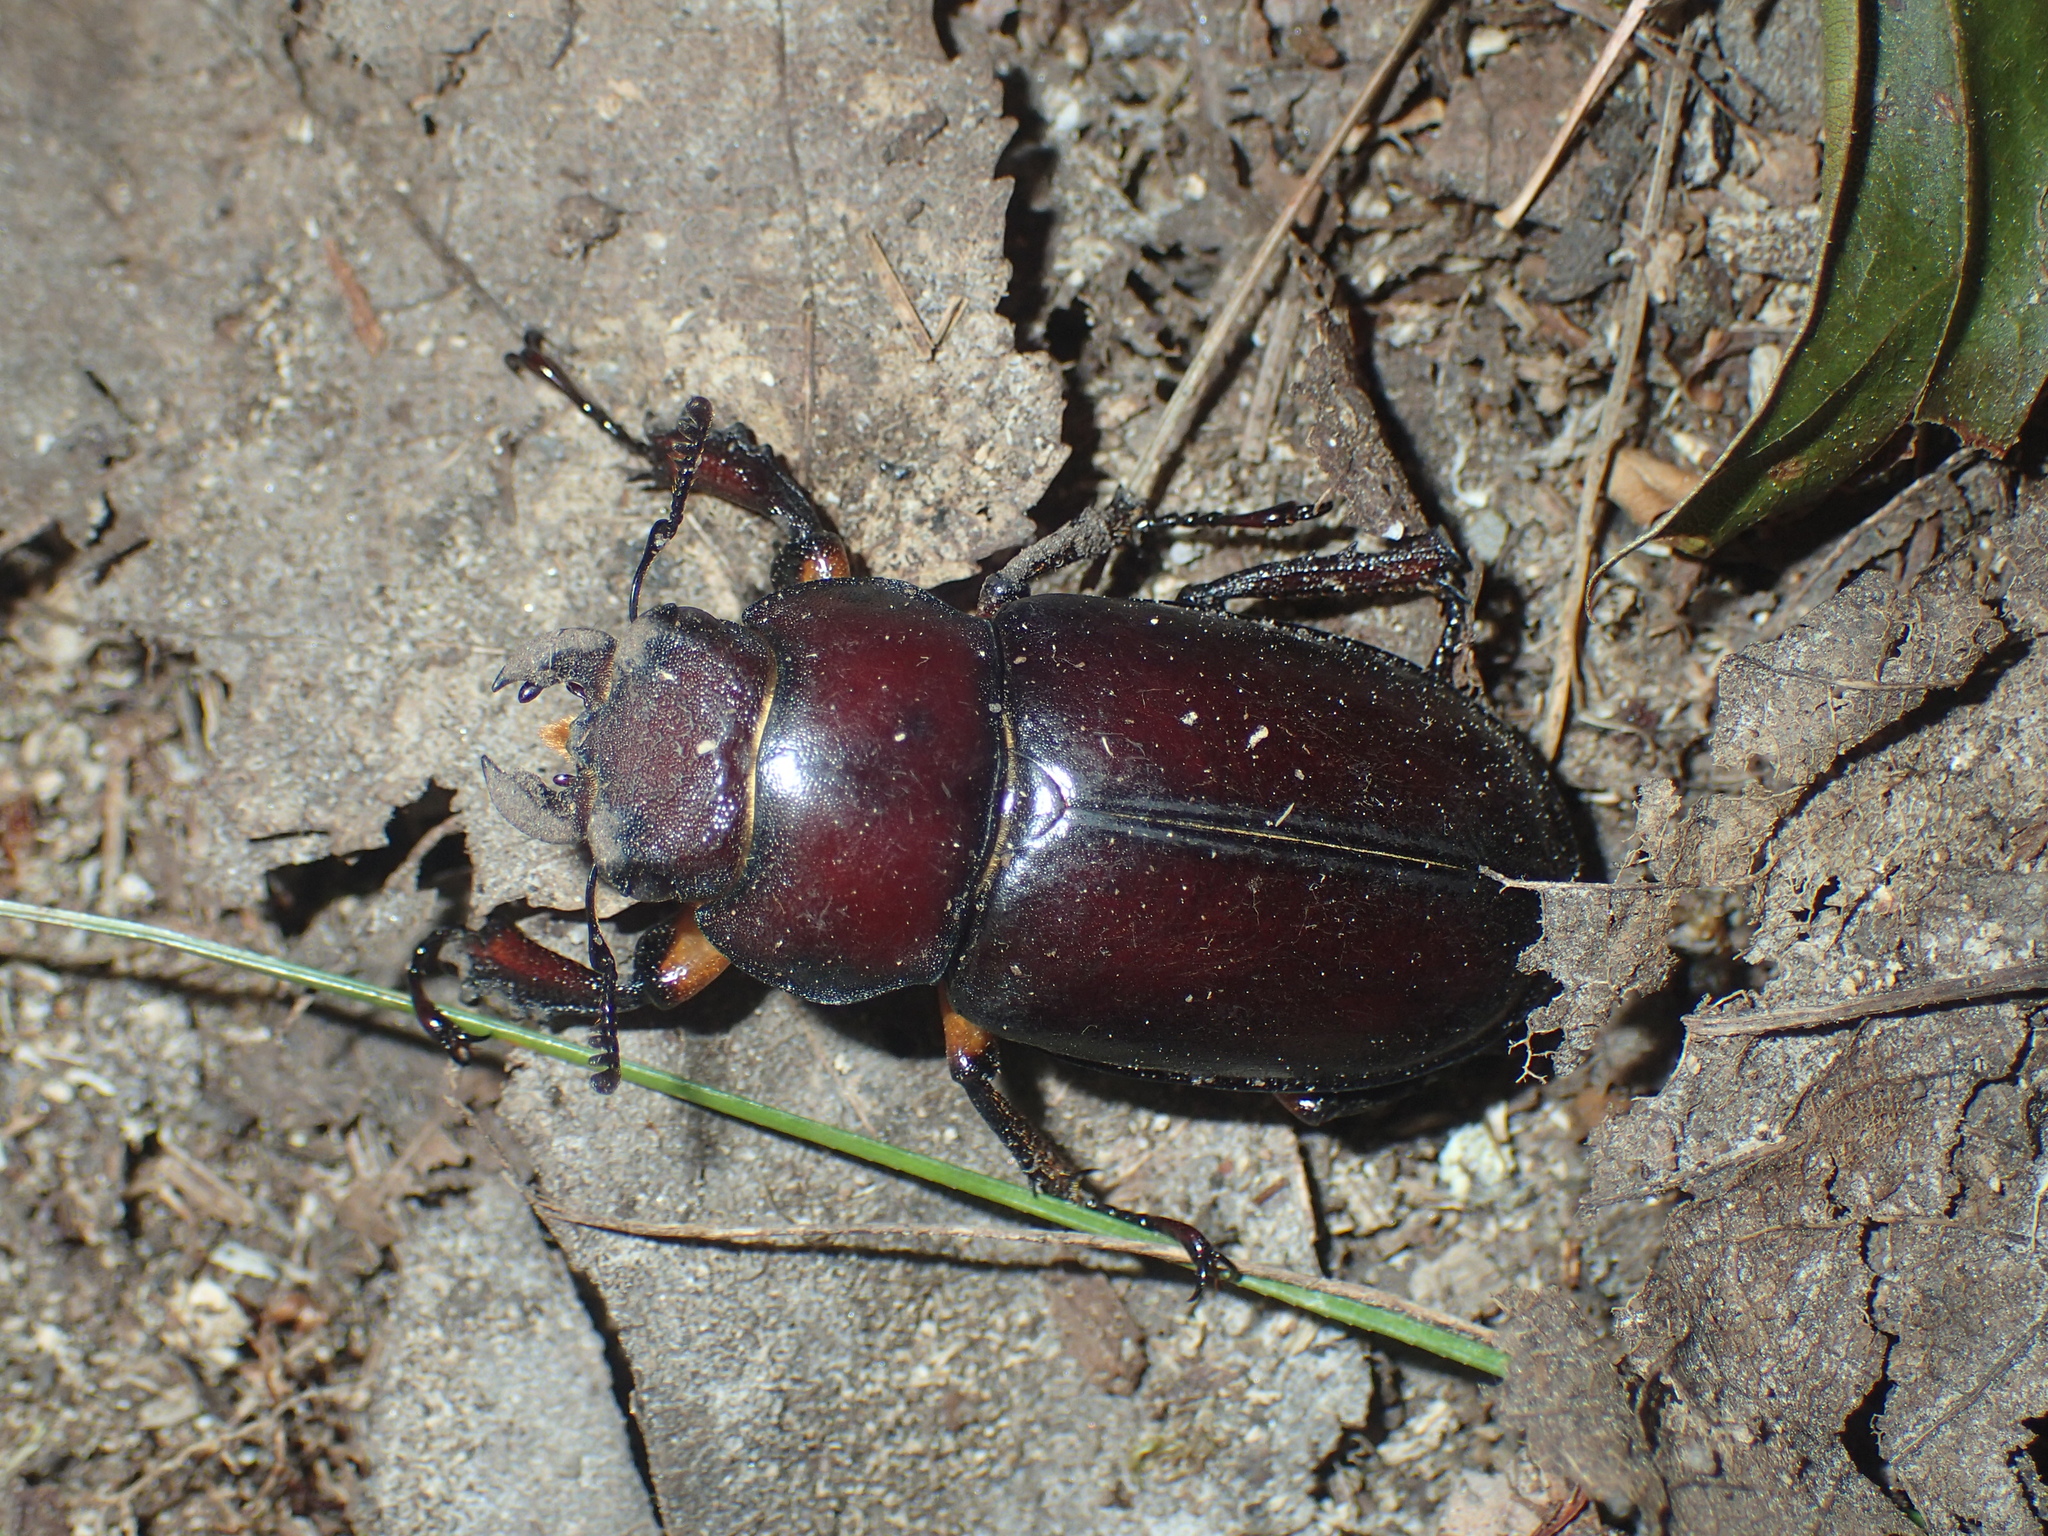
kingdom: Animalia
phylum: Arthropoda
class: Insecta
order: Coleoptera
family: Lucanidae
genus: Lucanus
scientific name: Lucanus capreolus
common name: Stag beetle
